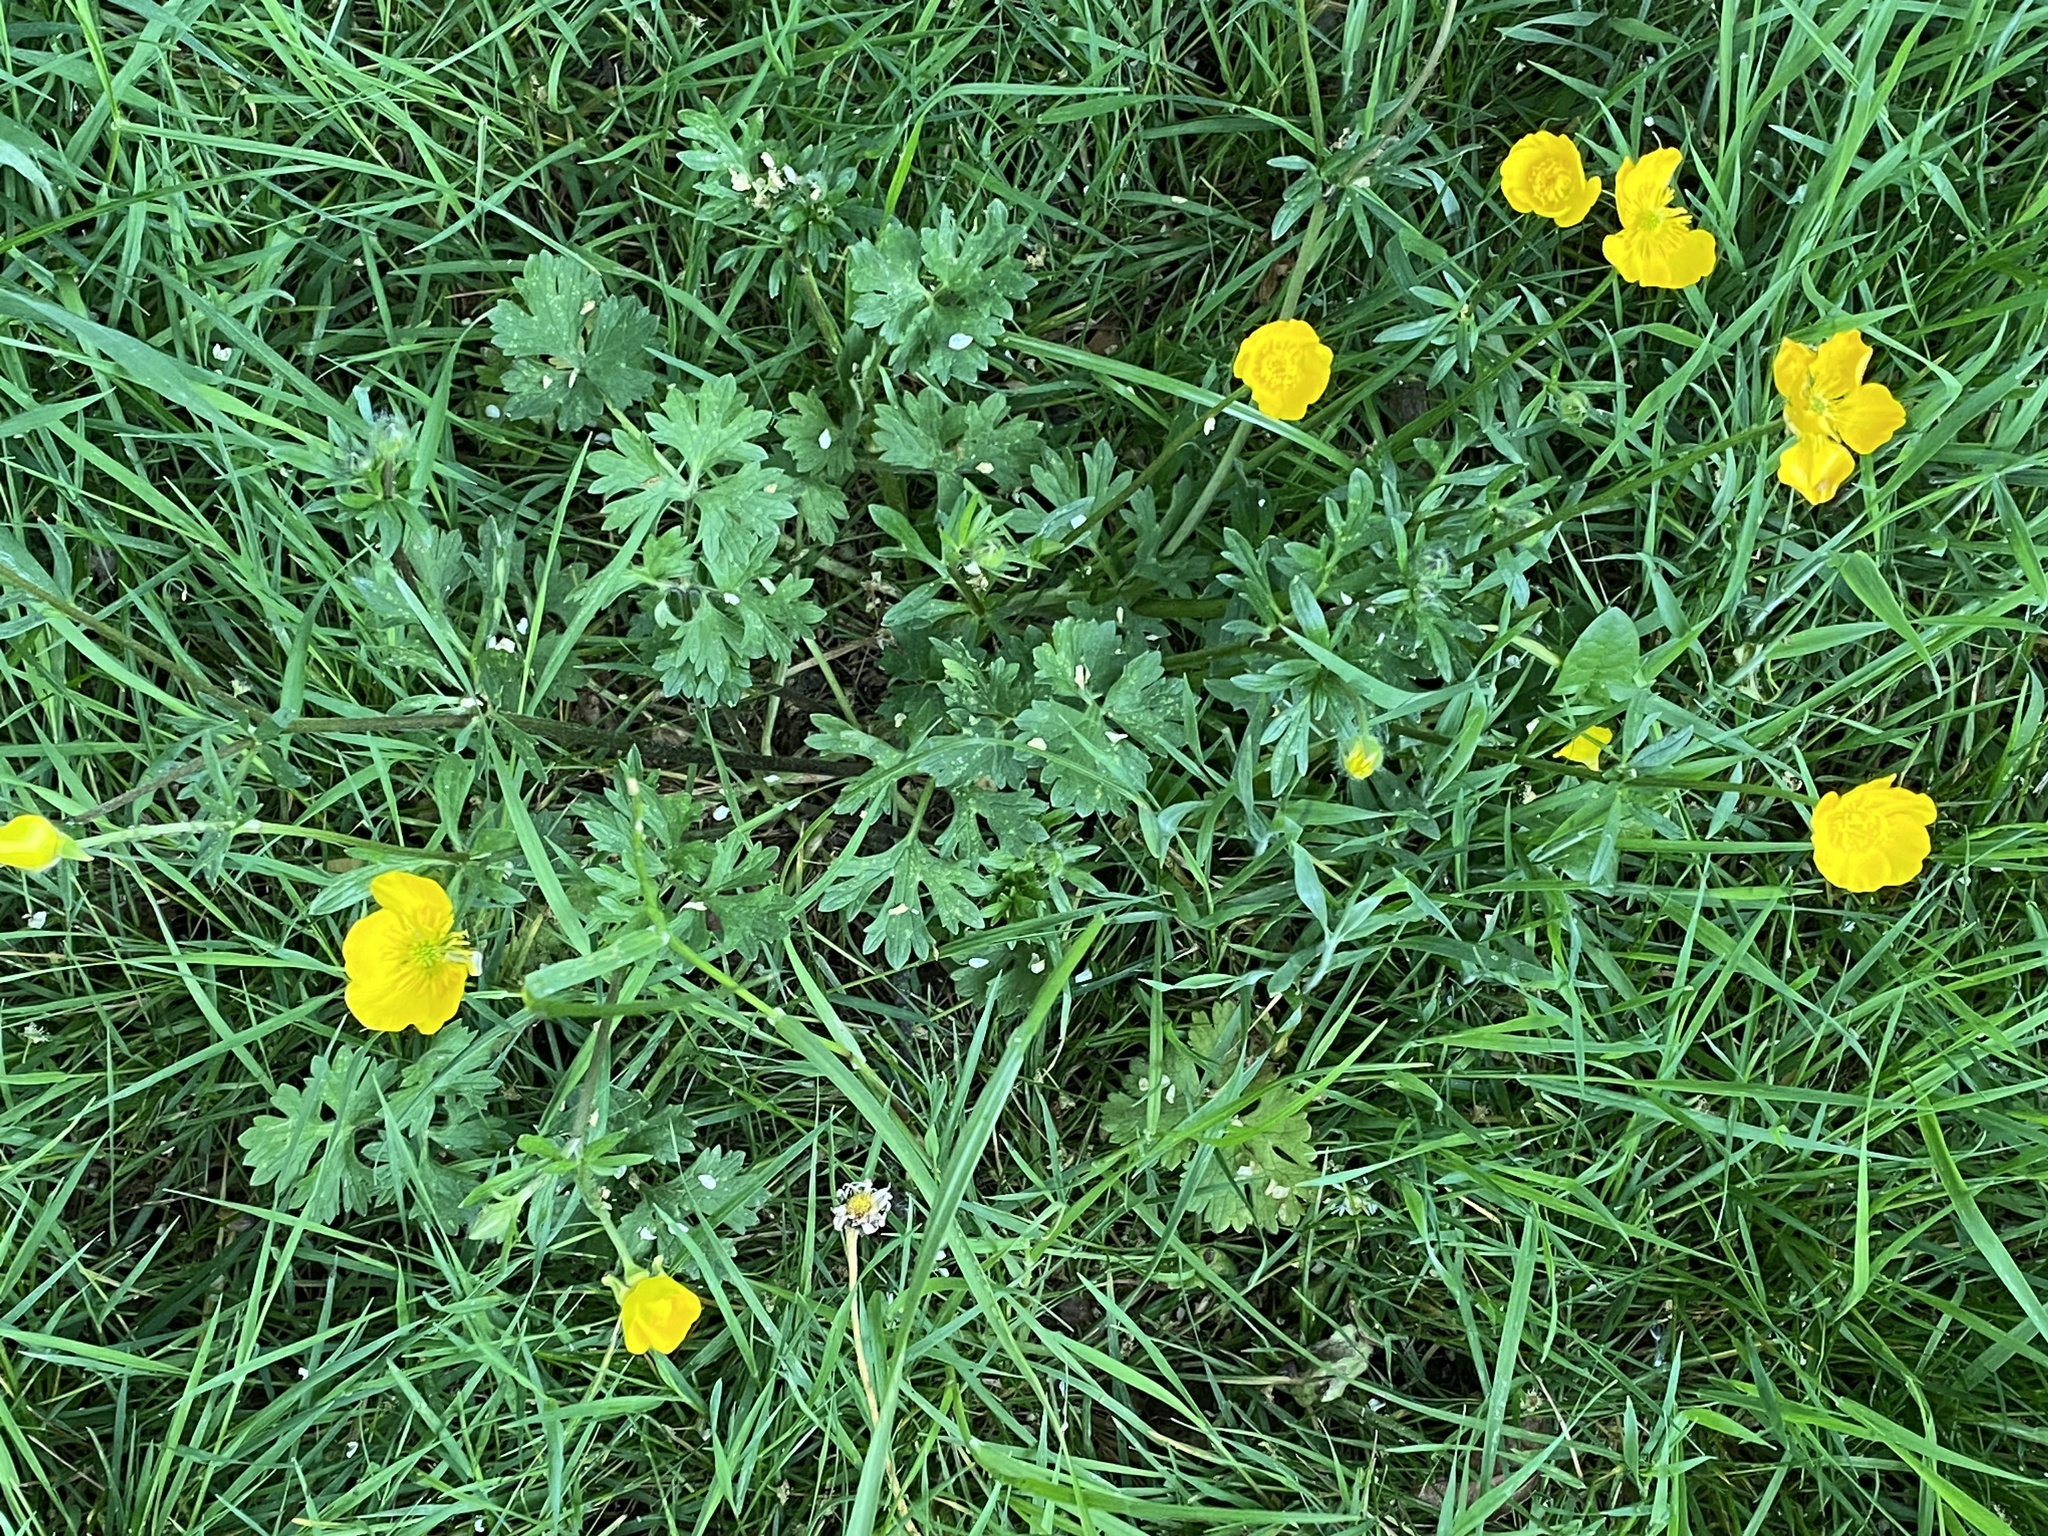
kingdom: Plantae
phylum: Tracheophyta
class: Magnoliopsida
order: Ranunculales
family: Ranunculaceae
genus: Ranunculus
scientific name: Ranunculus bulbosus
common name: Bulbous buttercup
